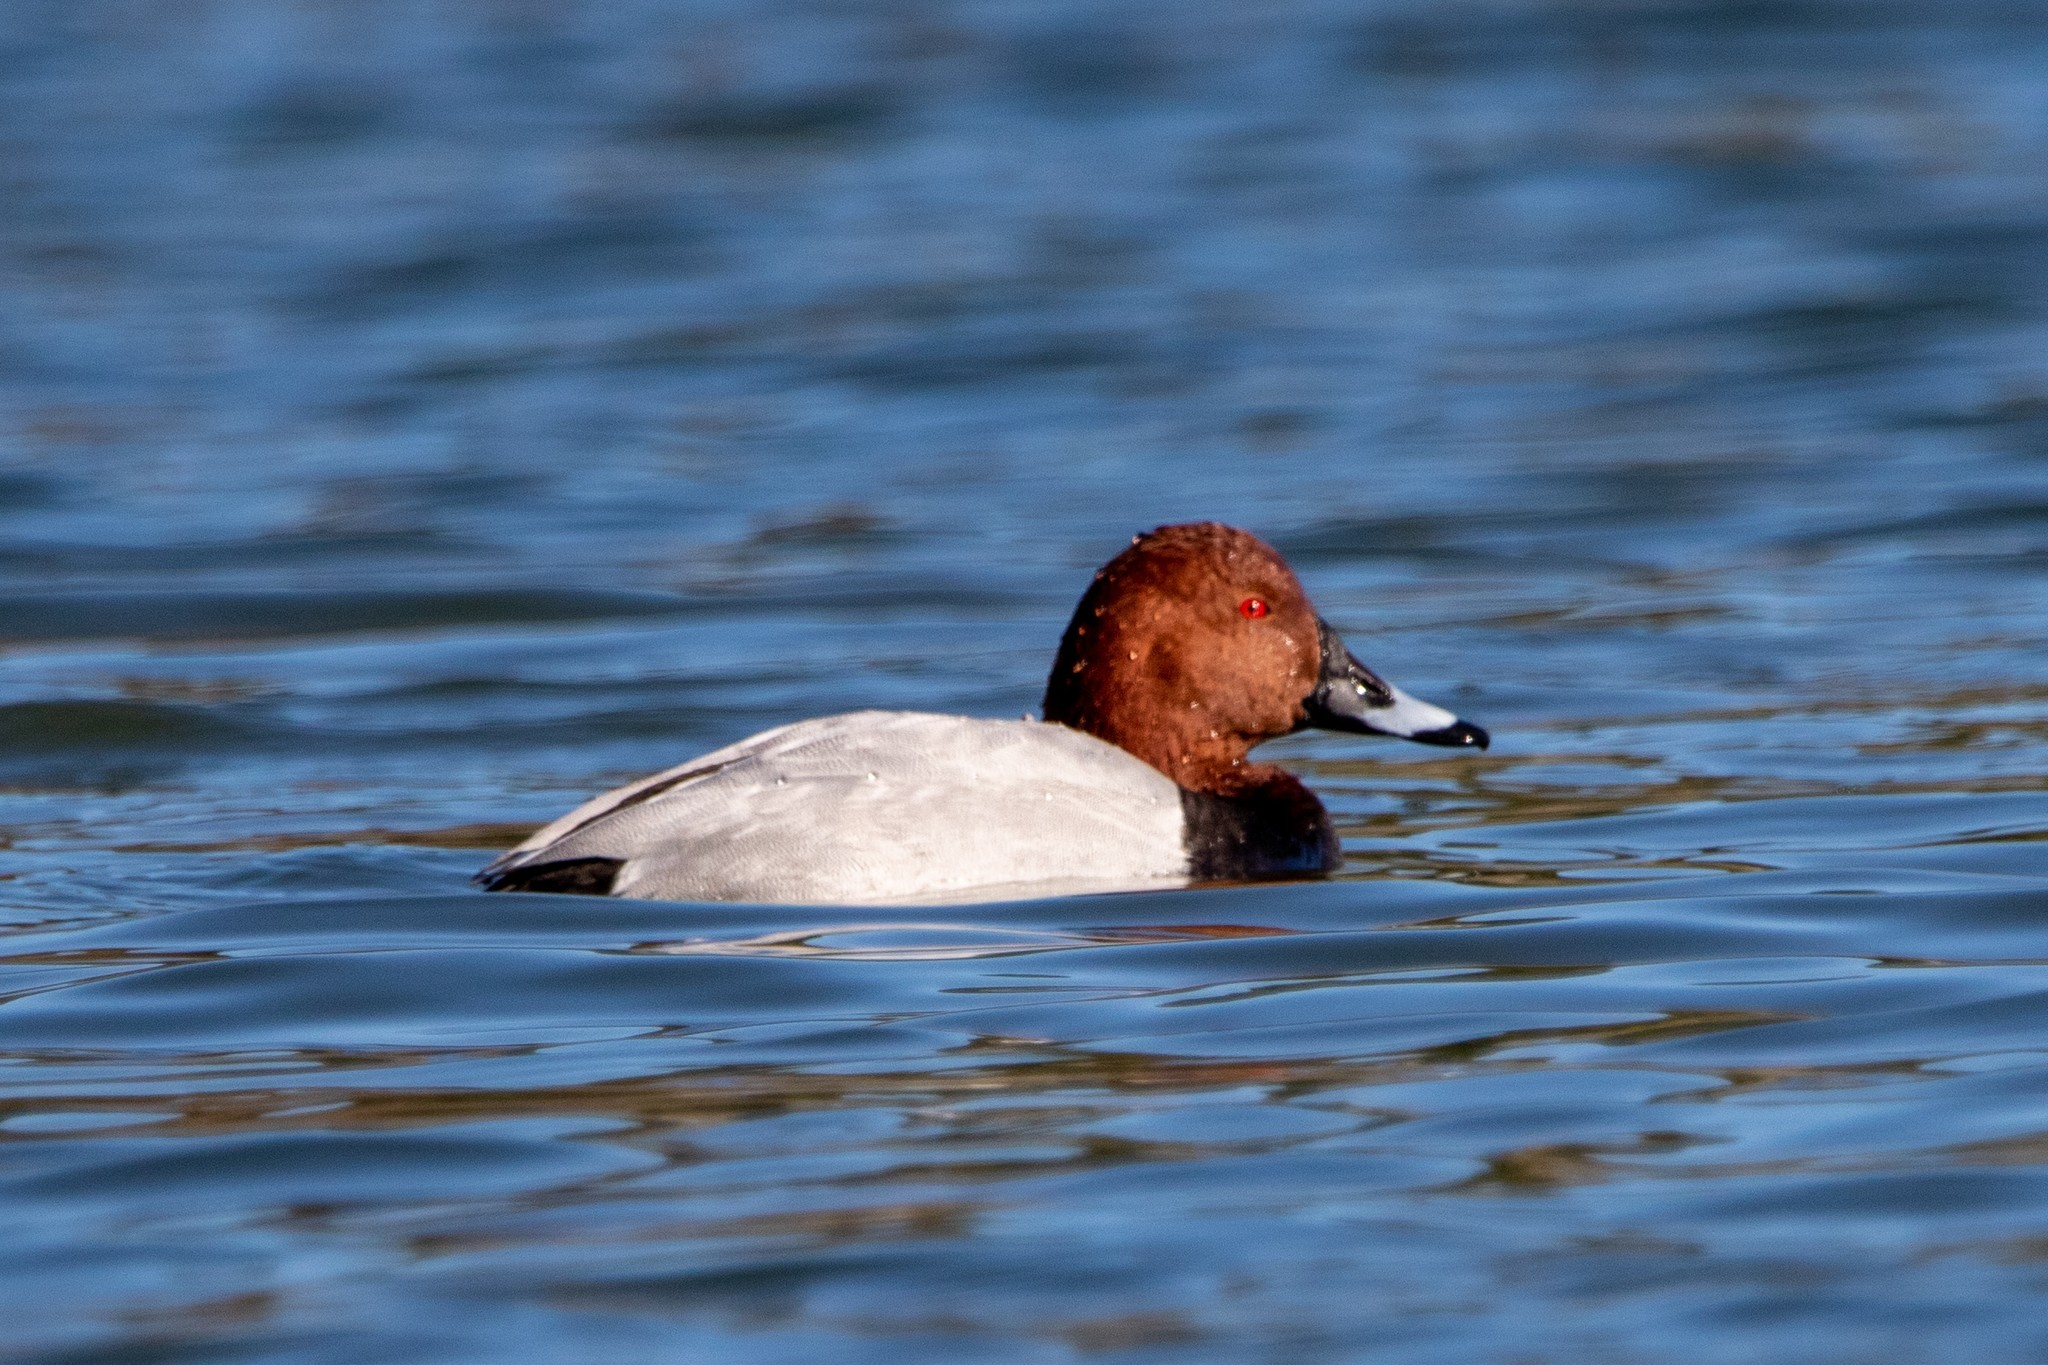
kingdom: Animalia
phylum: Chordata
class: Aves
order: Anseriformes
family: Anatidae
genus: Aythya
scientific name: Aythya ferina
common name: Common pochard
